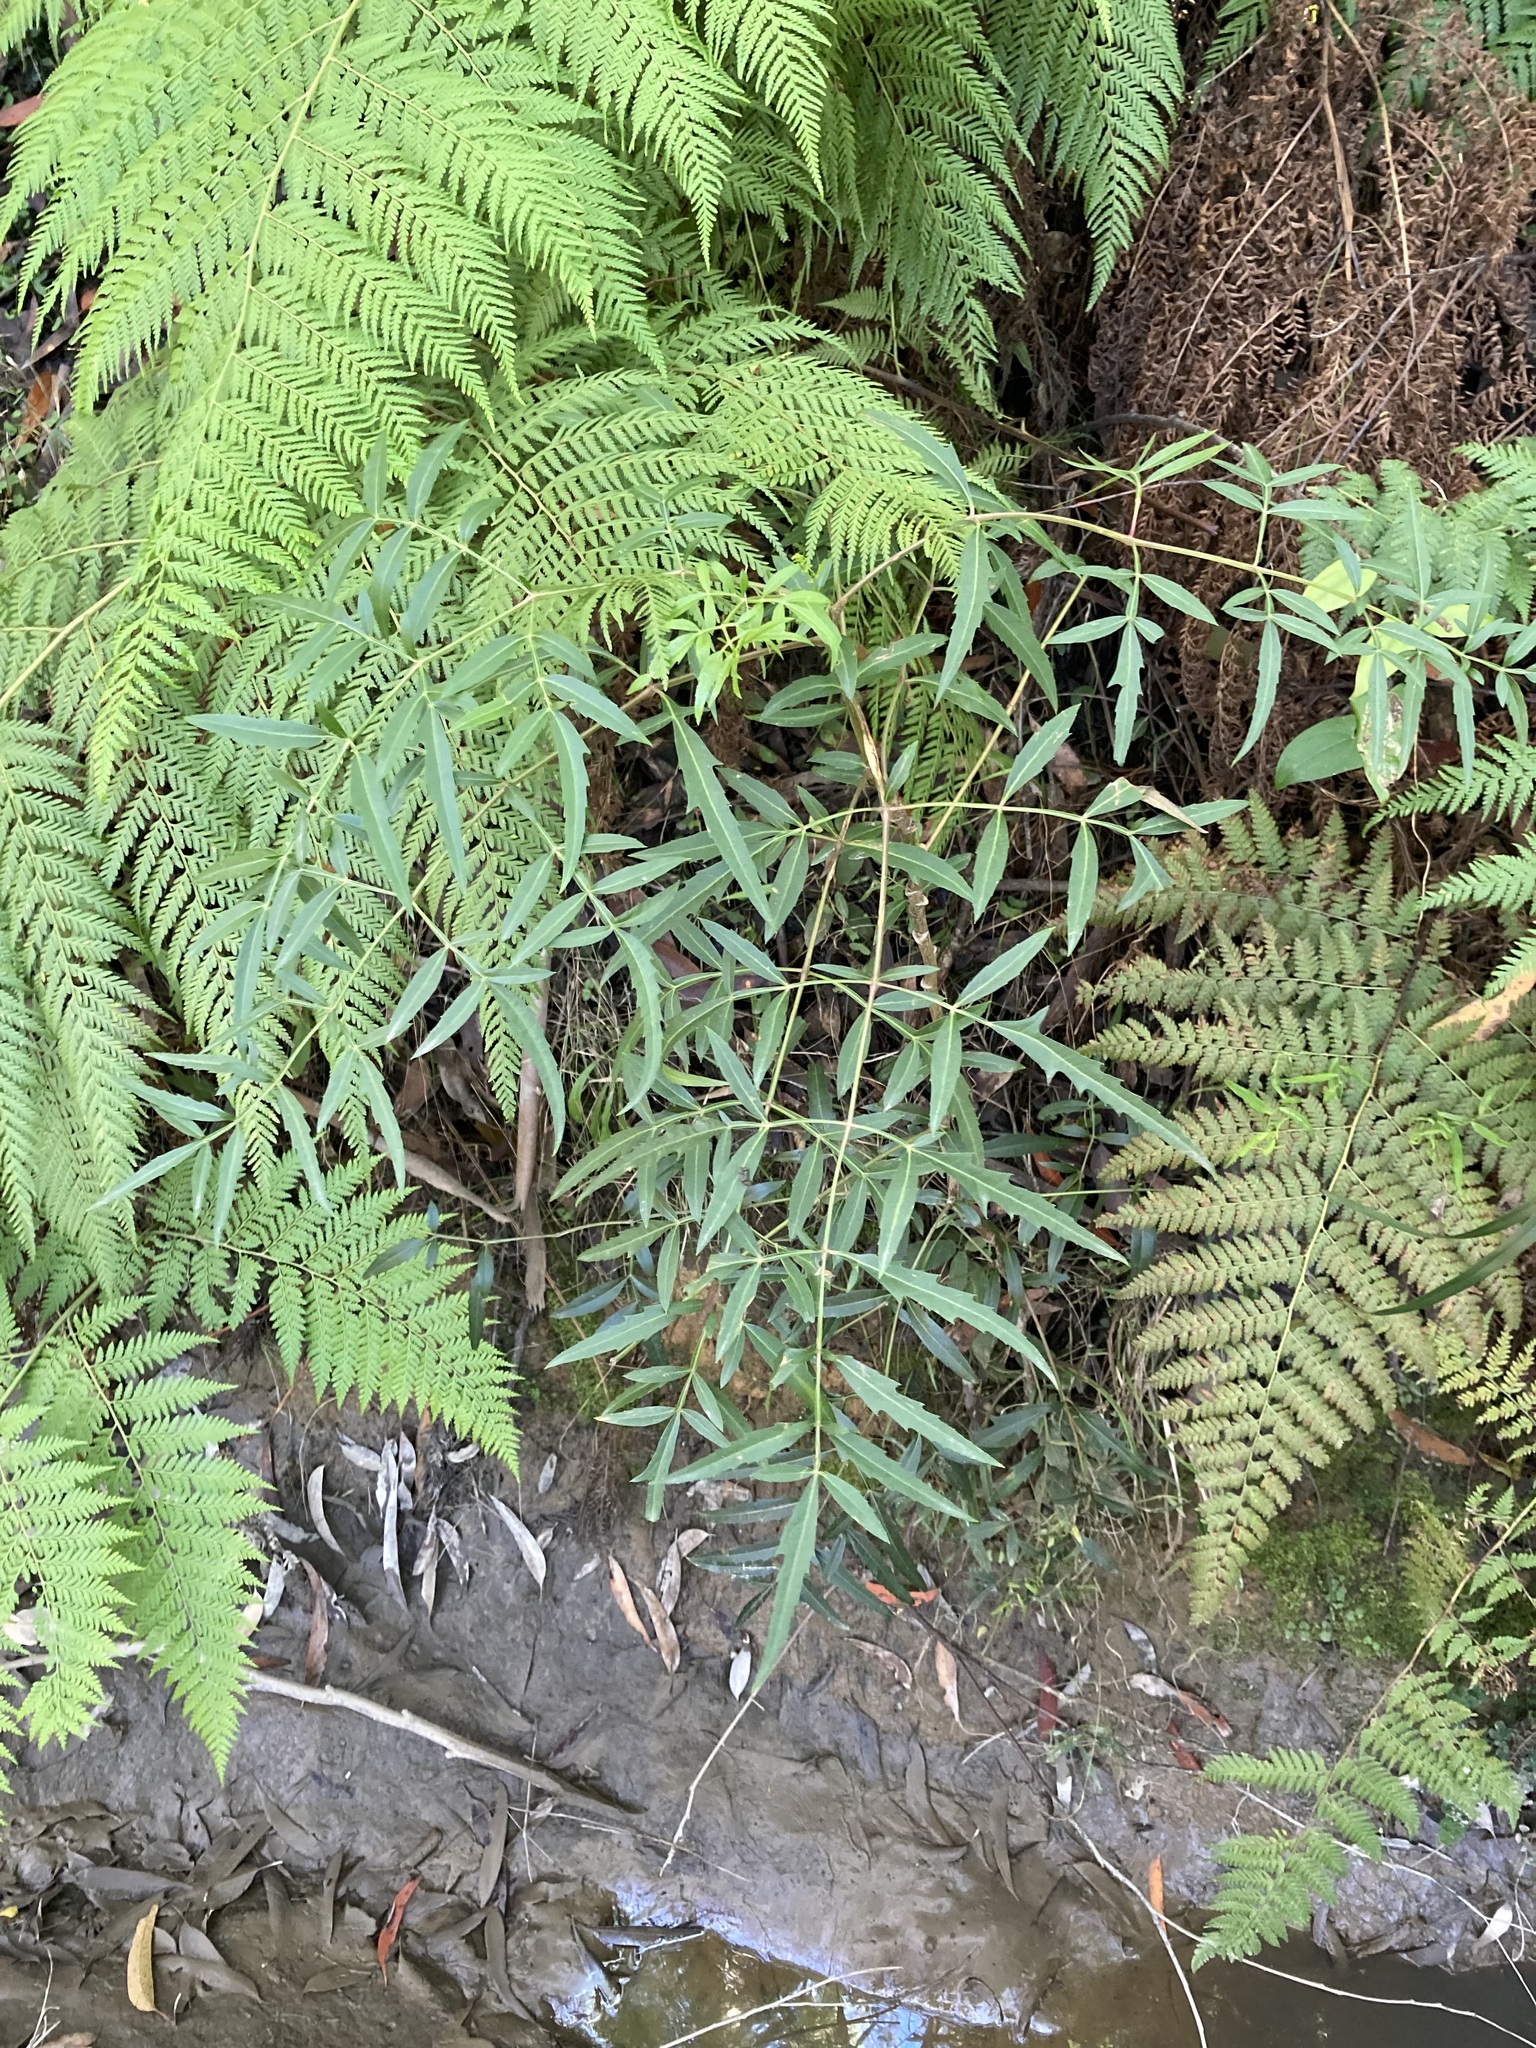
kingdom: Plantae
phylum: Tracheophyta
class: Magnoliopsida
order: Apiales
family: Araliaceae
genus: Polyscias
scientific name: Polyscias sambucifolia
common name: Elderberry-ash
